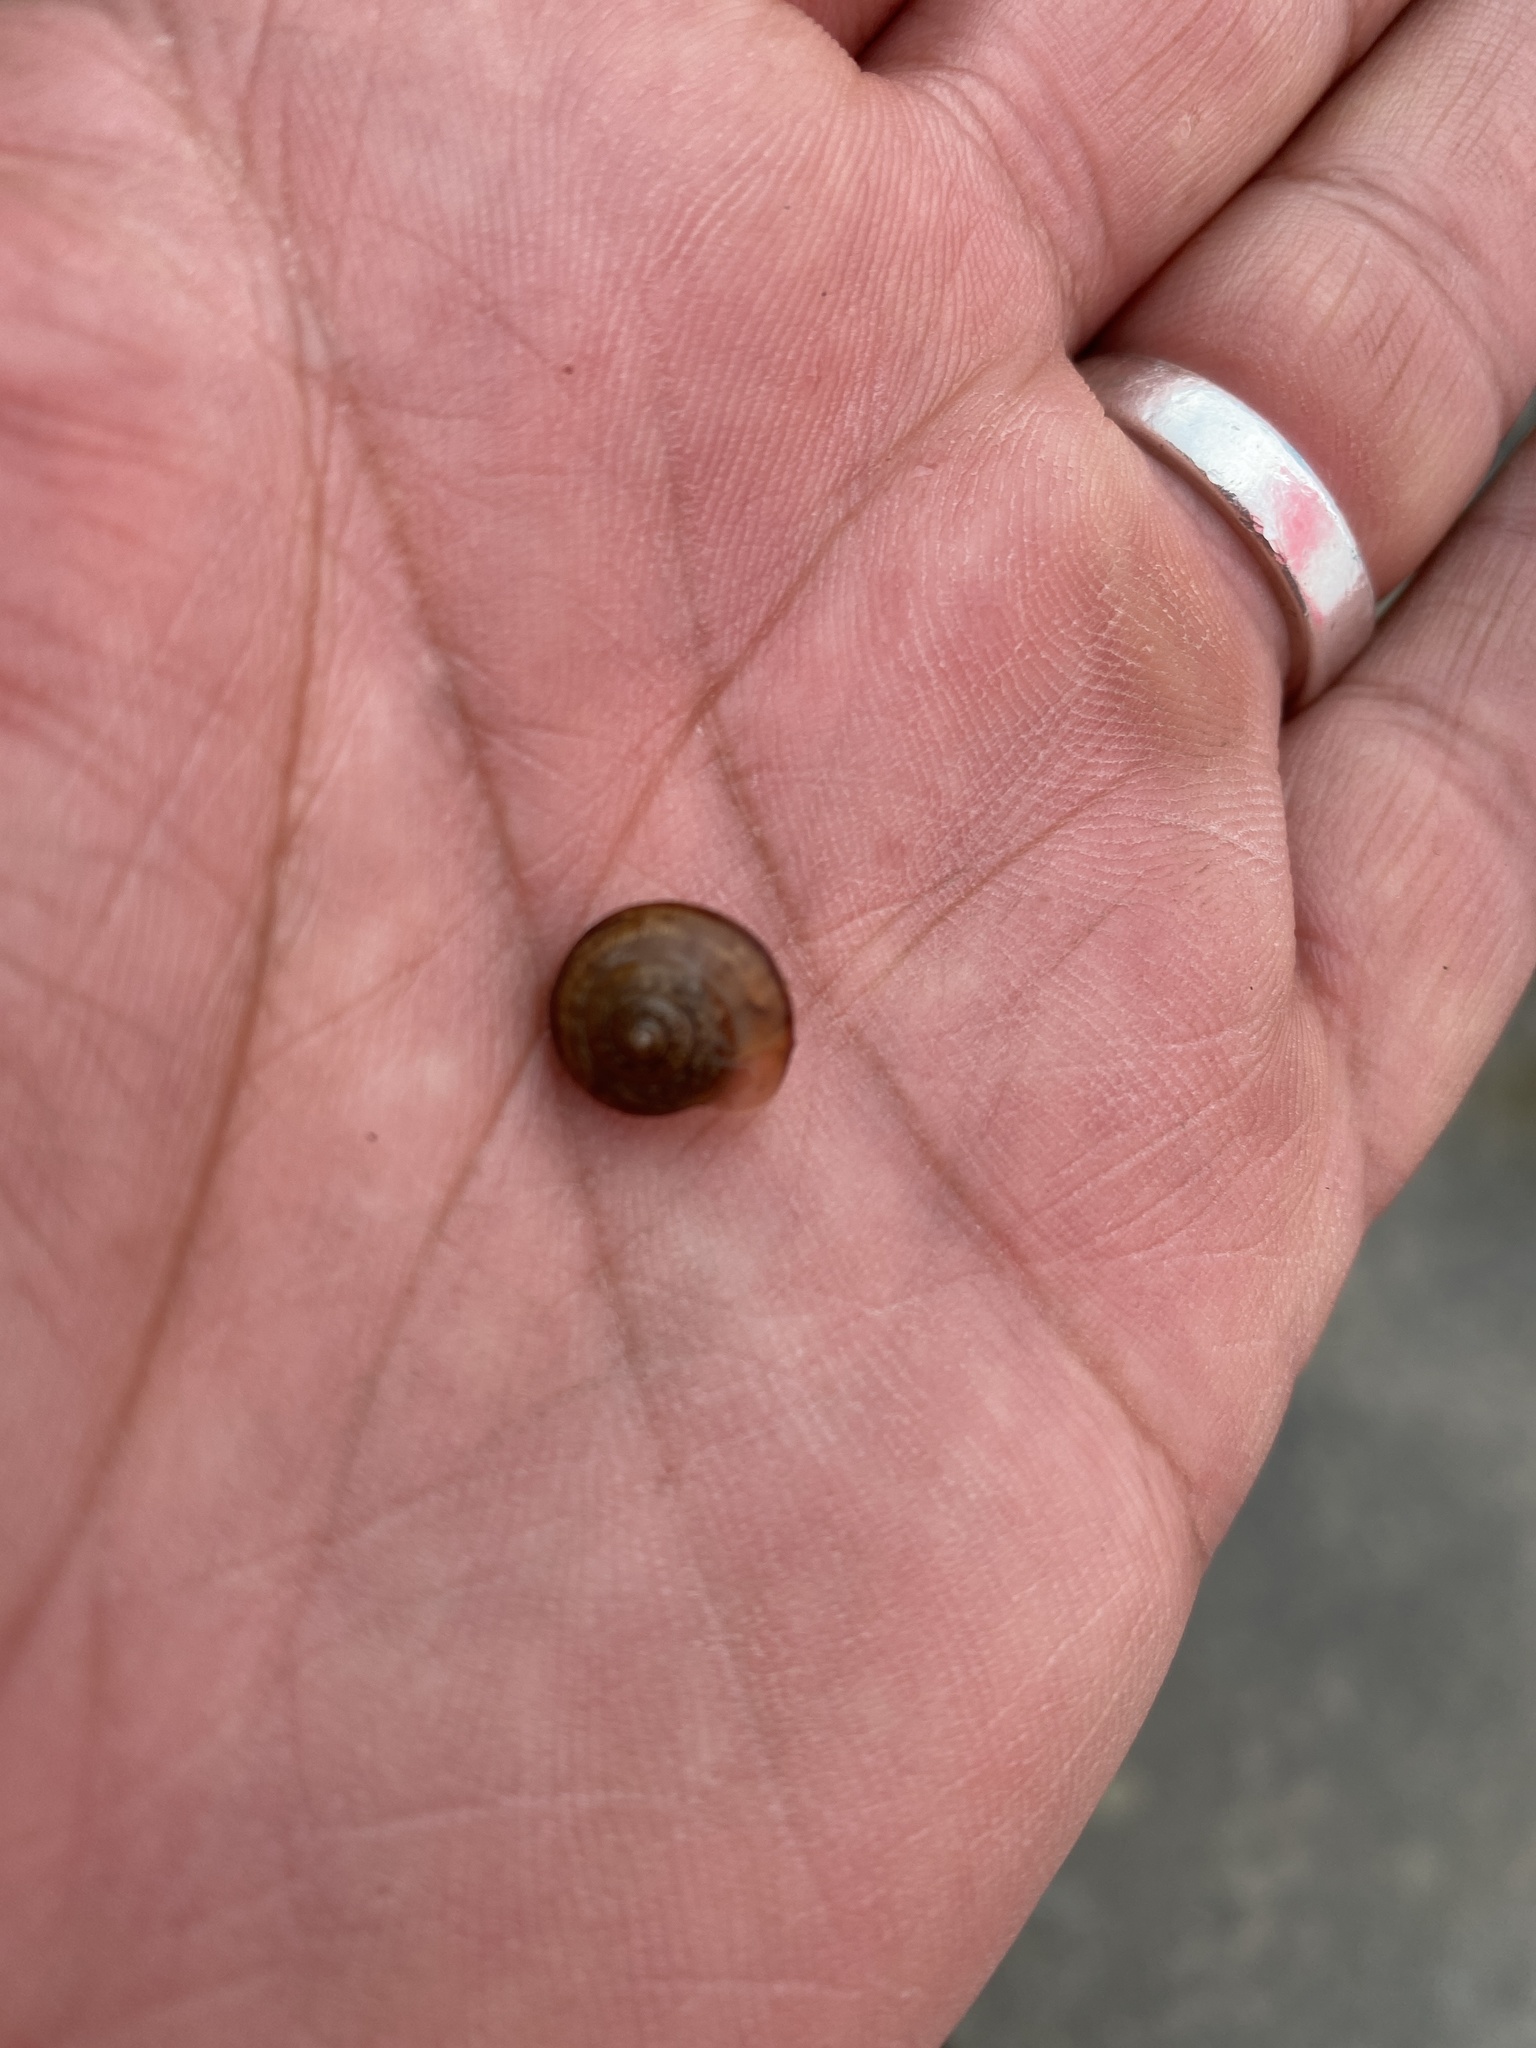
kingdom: Animalia
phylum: Mollusca
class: Gastropoda
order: Stylommatophora
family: Camaenidae
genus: Bradybaena
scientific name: Bradybaena similaris
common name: Asian trampsnail
